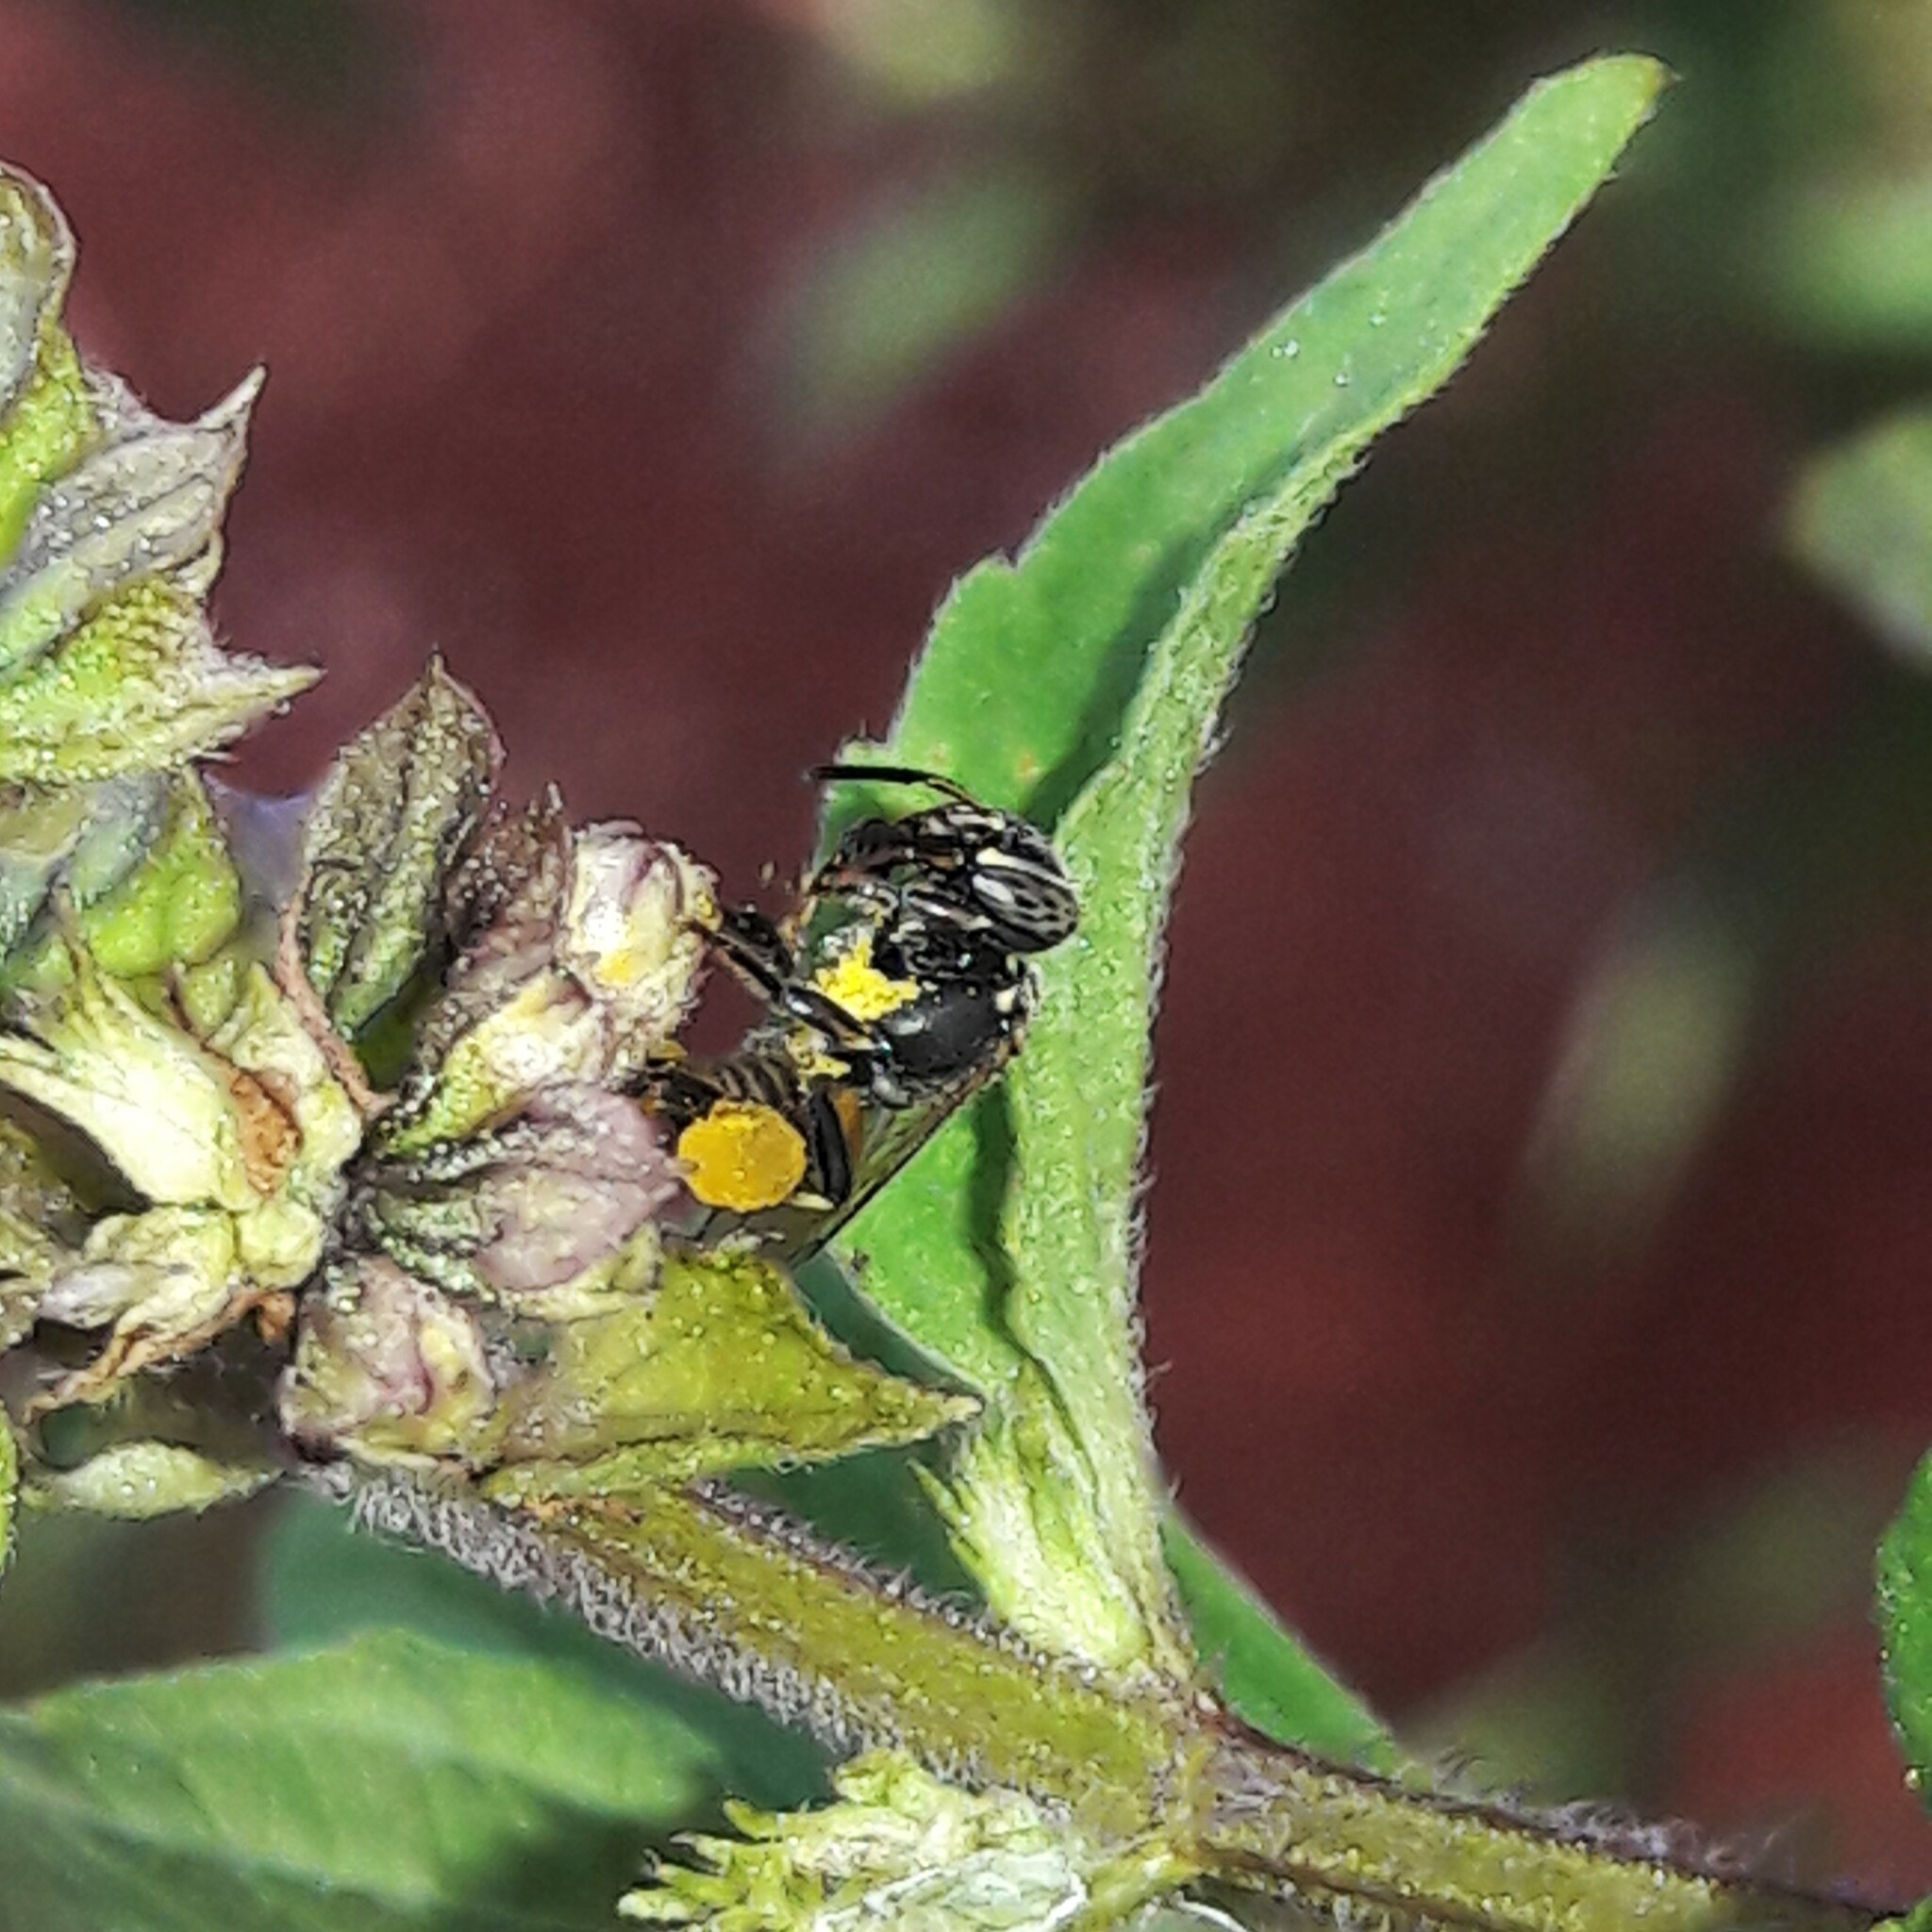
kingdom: Animalia
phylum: Arthropoda
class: Insecta
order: Hymenoptera
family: Apidae
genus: Paratrigona
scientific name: Paratrigona lineata
